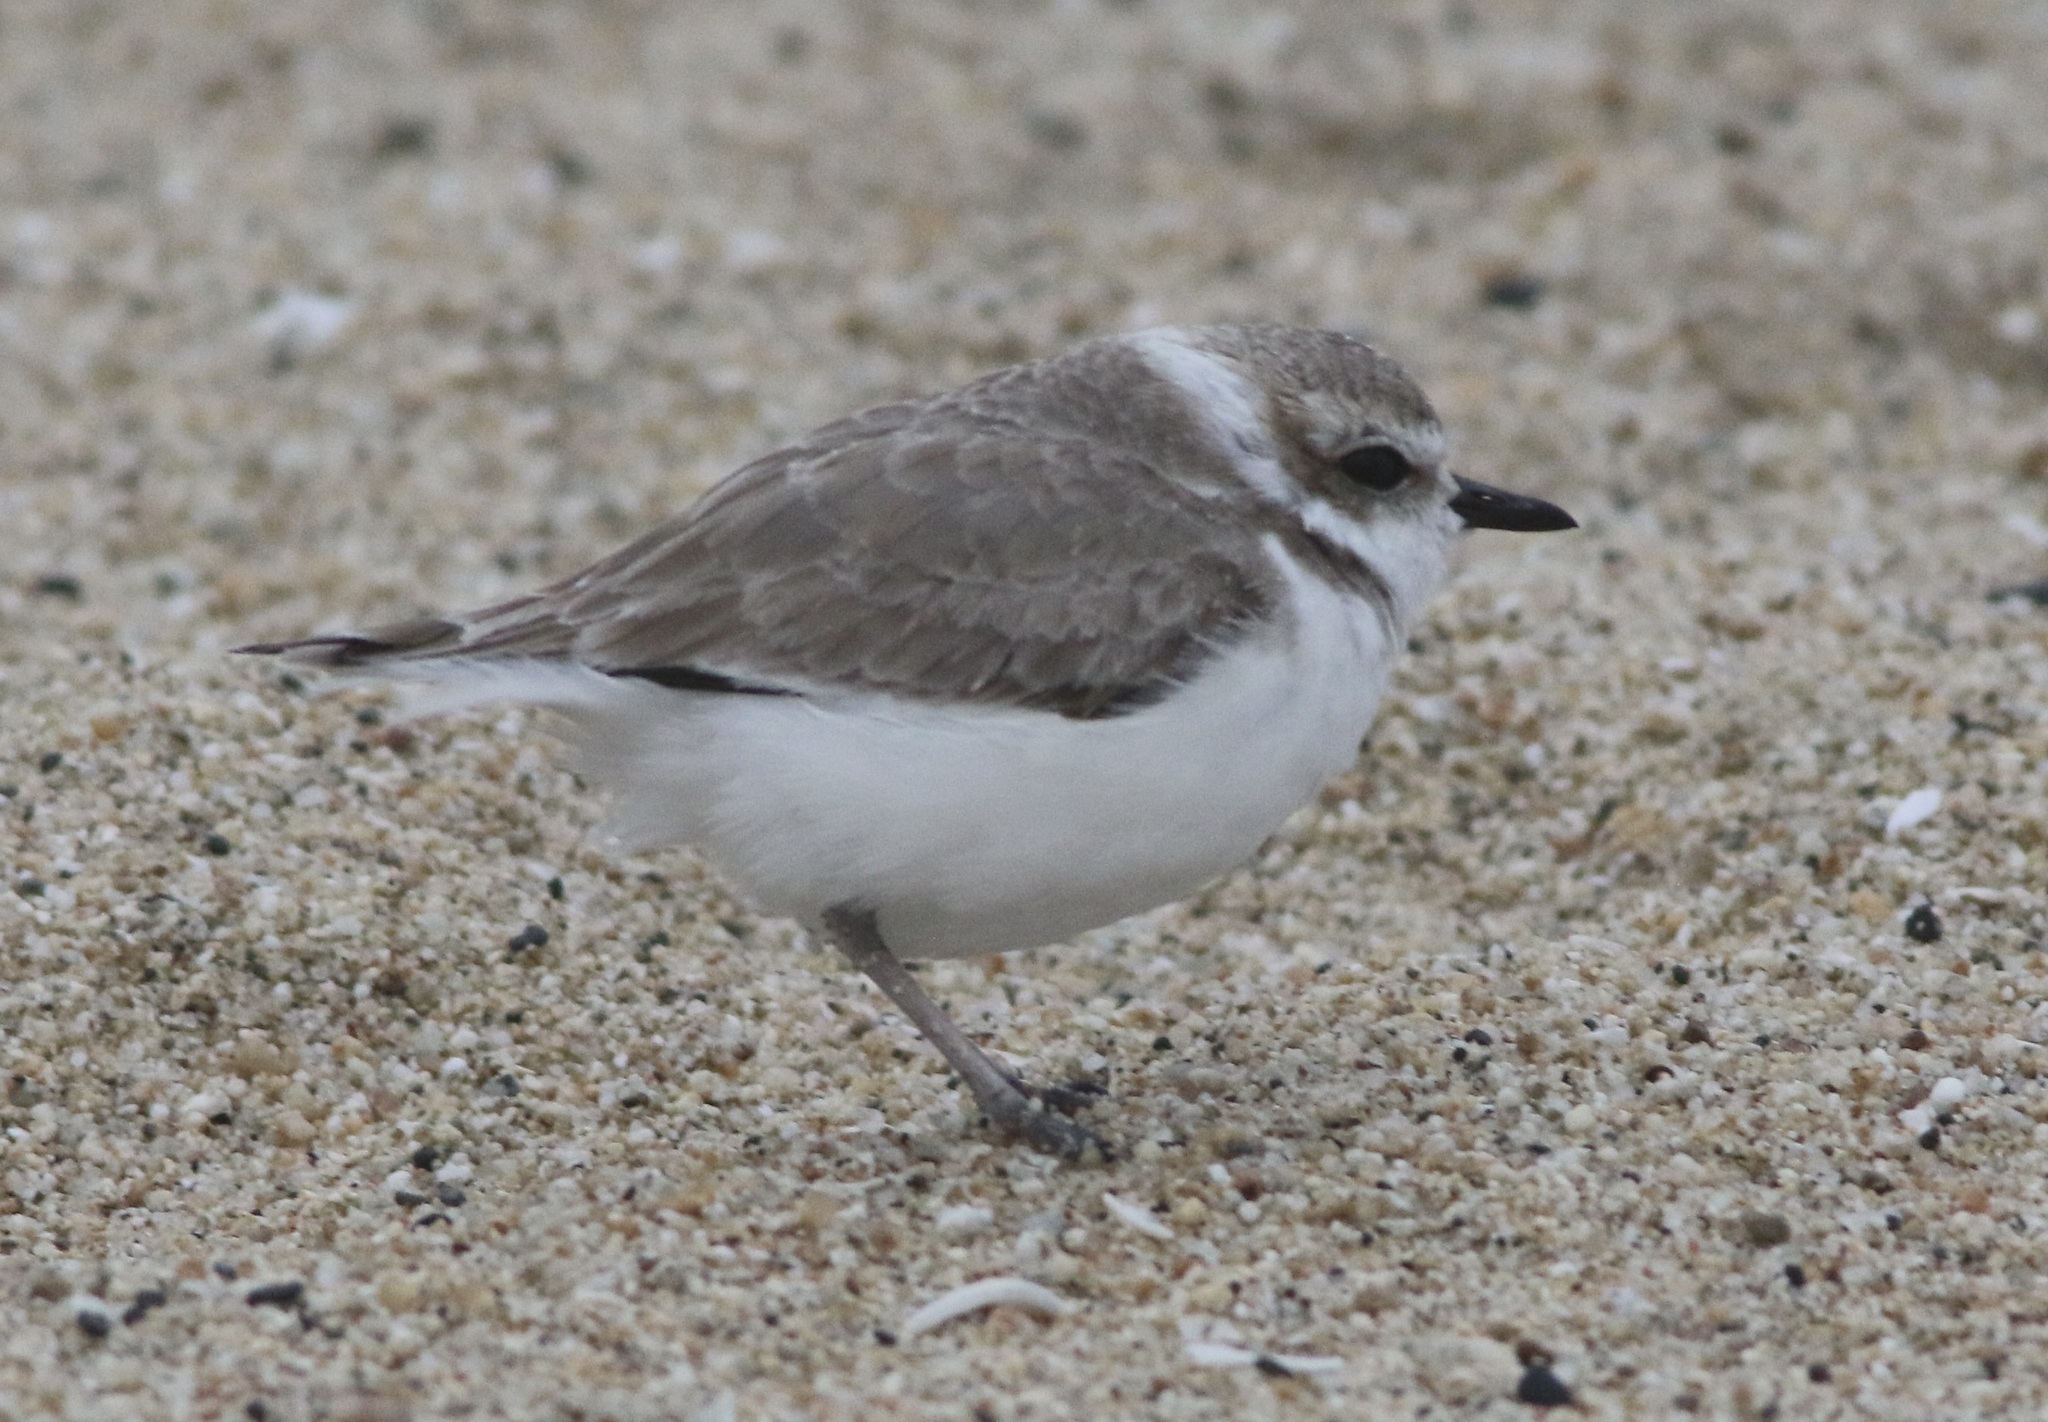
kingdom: Animalia
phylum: Chordata
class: Aves
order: Charadriiformes
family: Charadriidae
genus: Anarhynchus
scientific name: Anarhynchus
